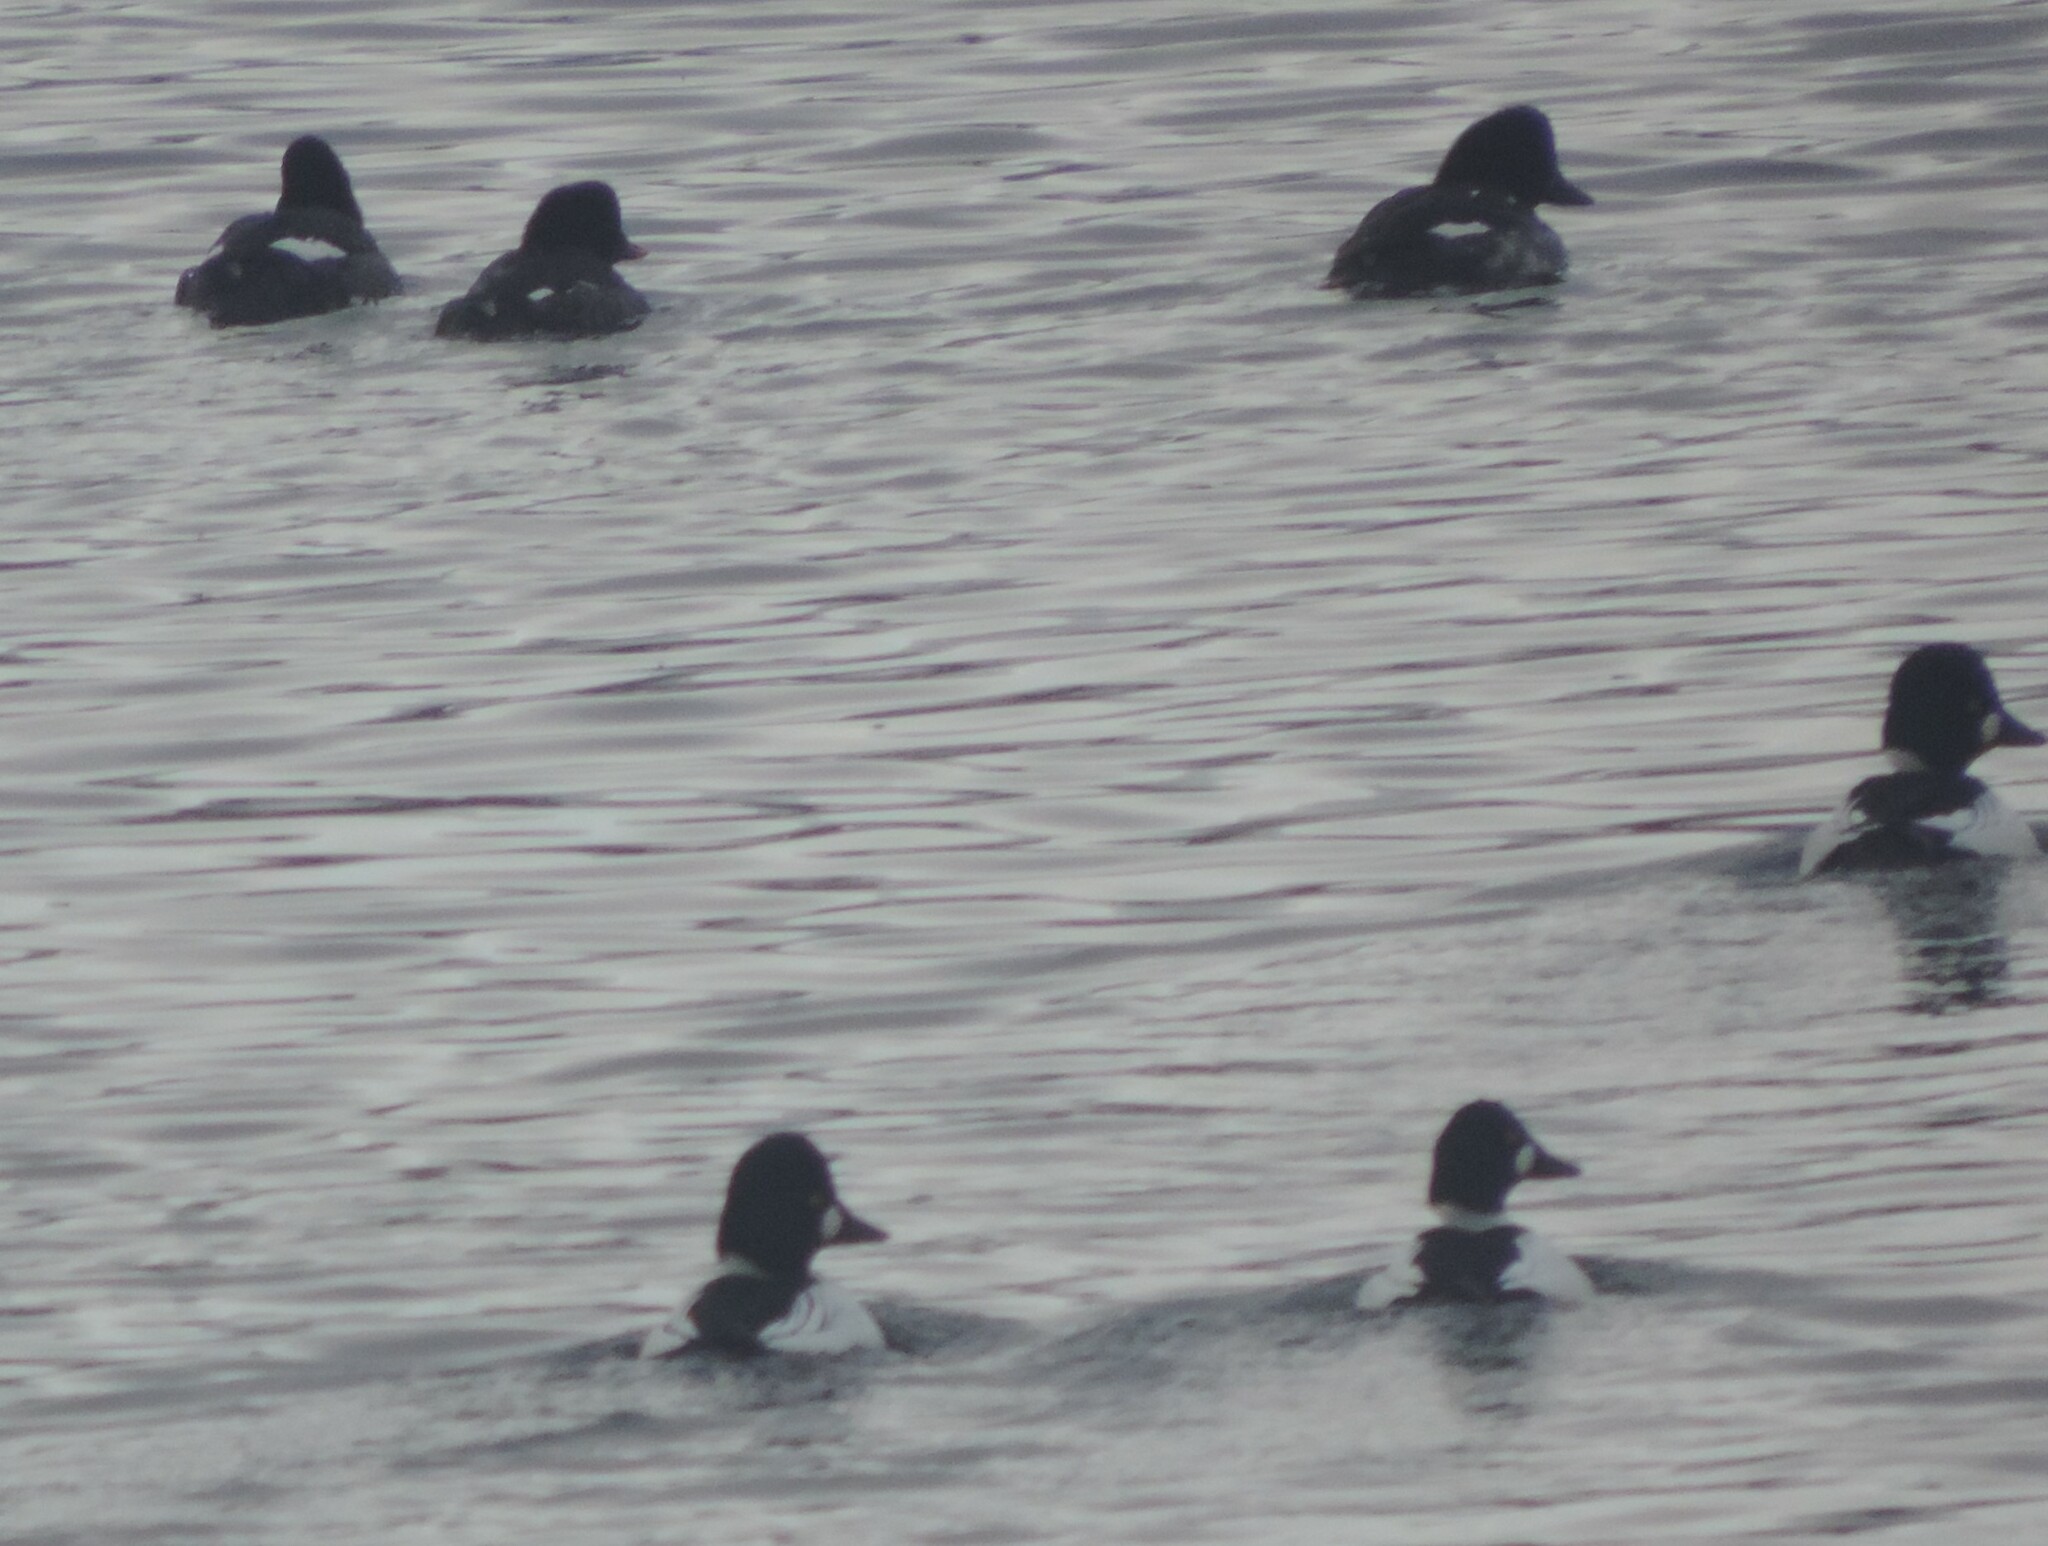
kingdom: Animalia
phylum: Chordata
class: Aves
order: Anseriformes
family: Anatidae
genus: Bucephala
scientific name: Bucephala clangula
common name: Common goldeneye
